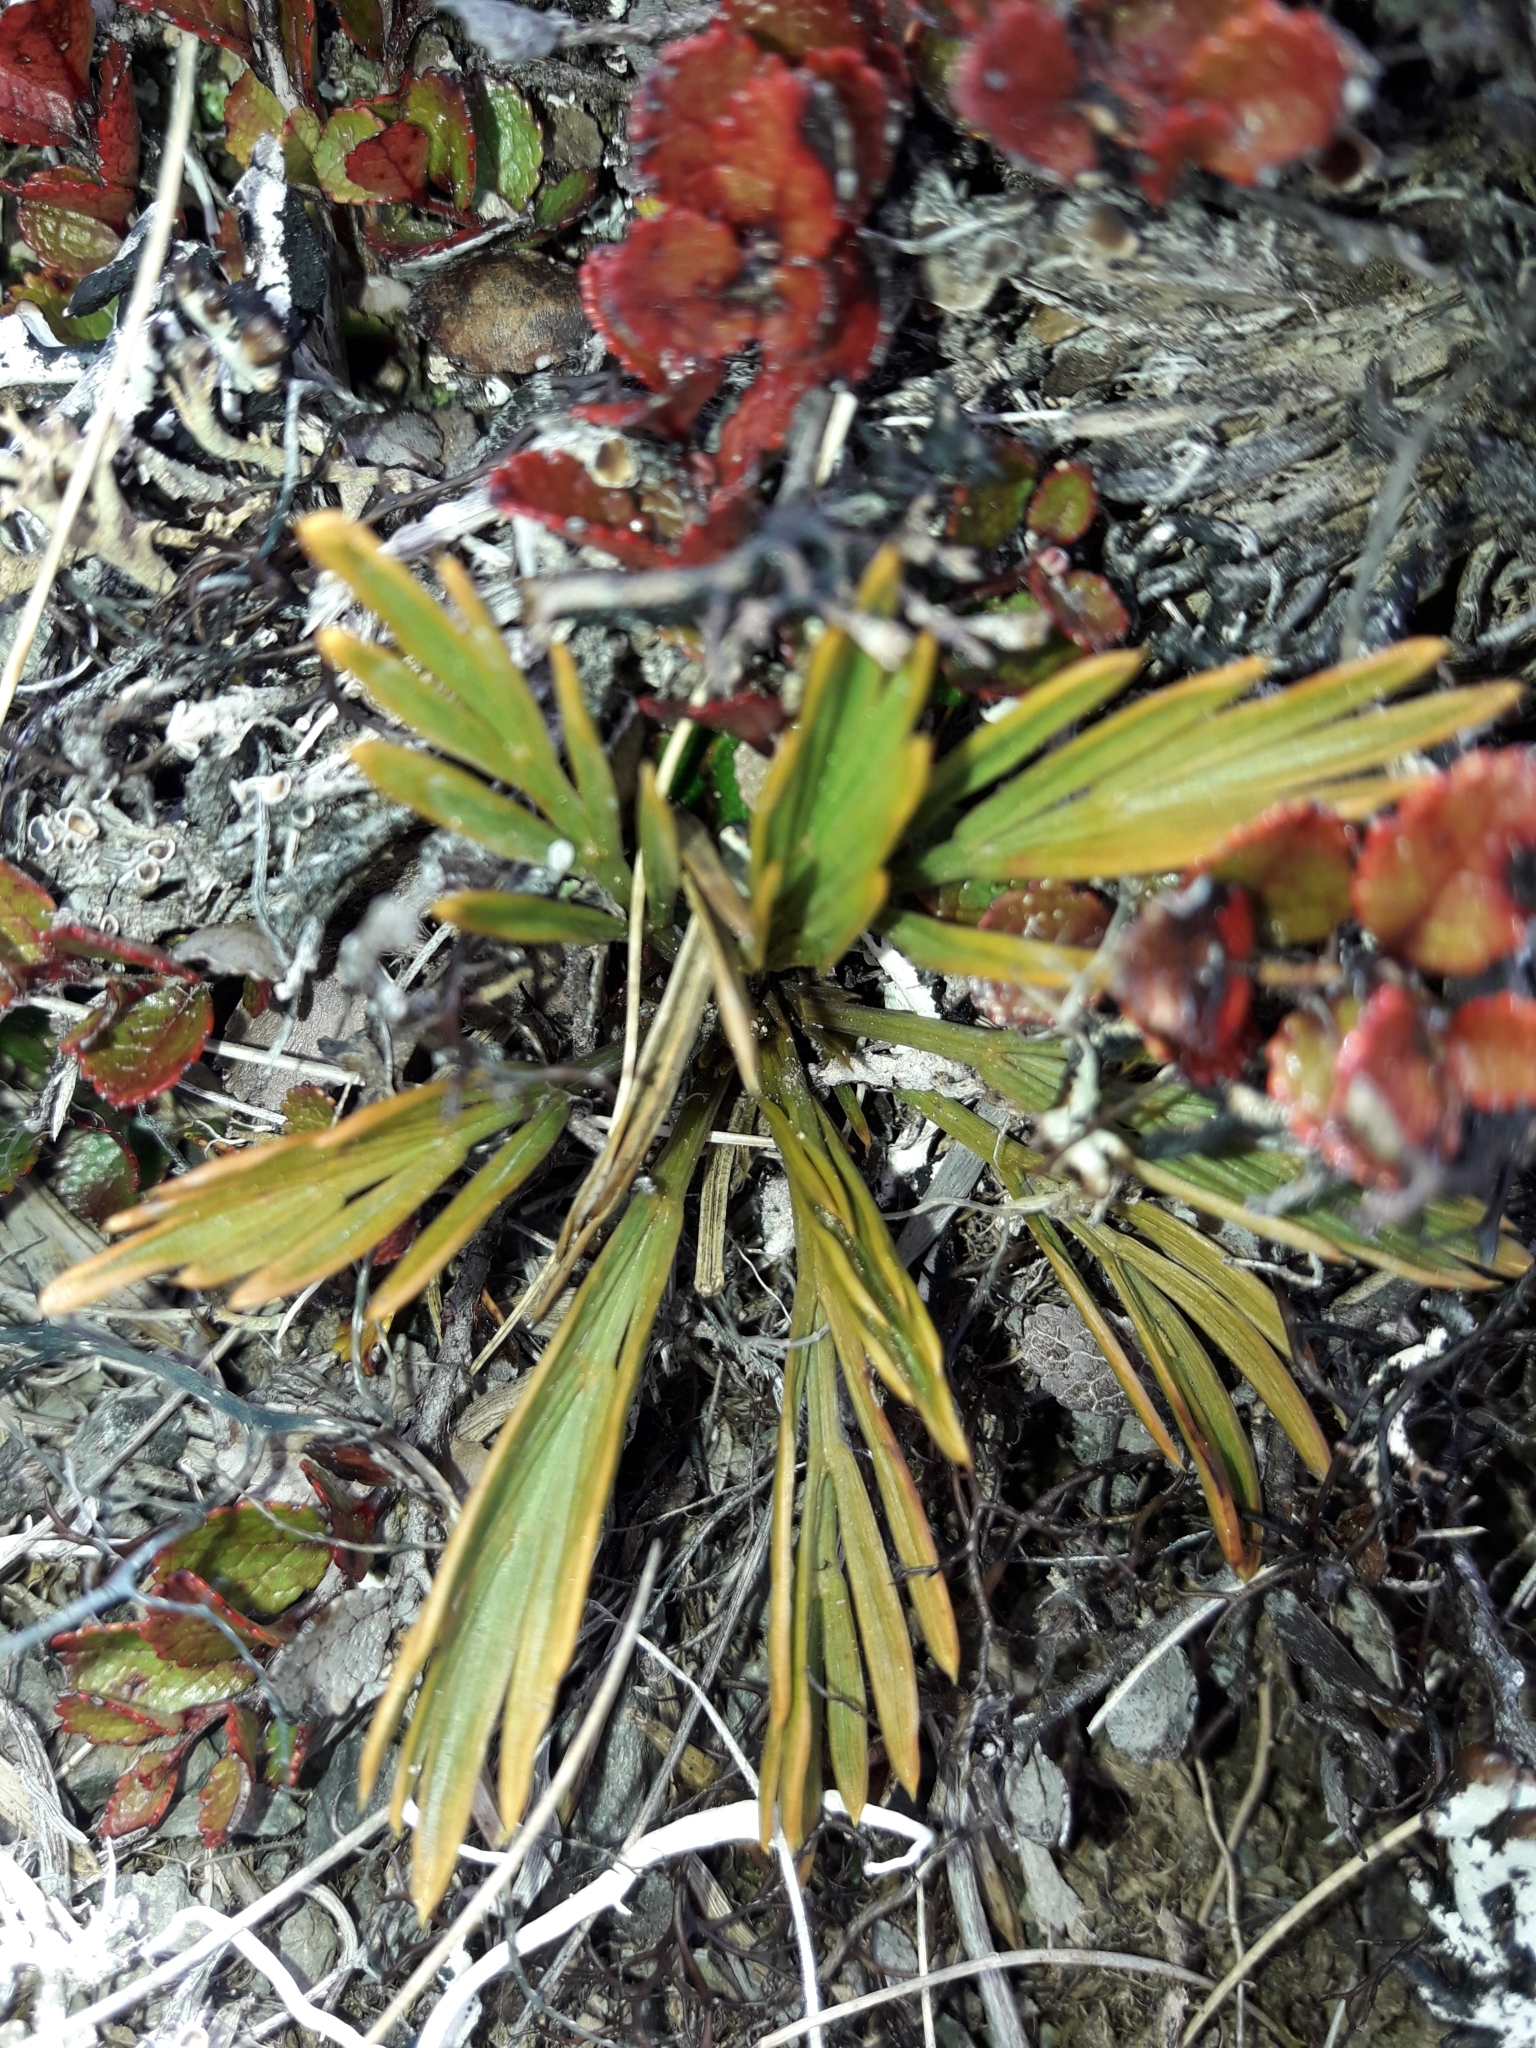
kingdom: Plantae
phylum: Tracheophyta
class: Magnoliopsida
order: Apiales
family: Apiaceae
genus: Aciphylla
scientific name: Aciphylla monroi
